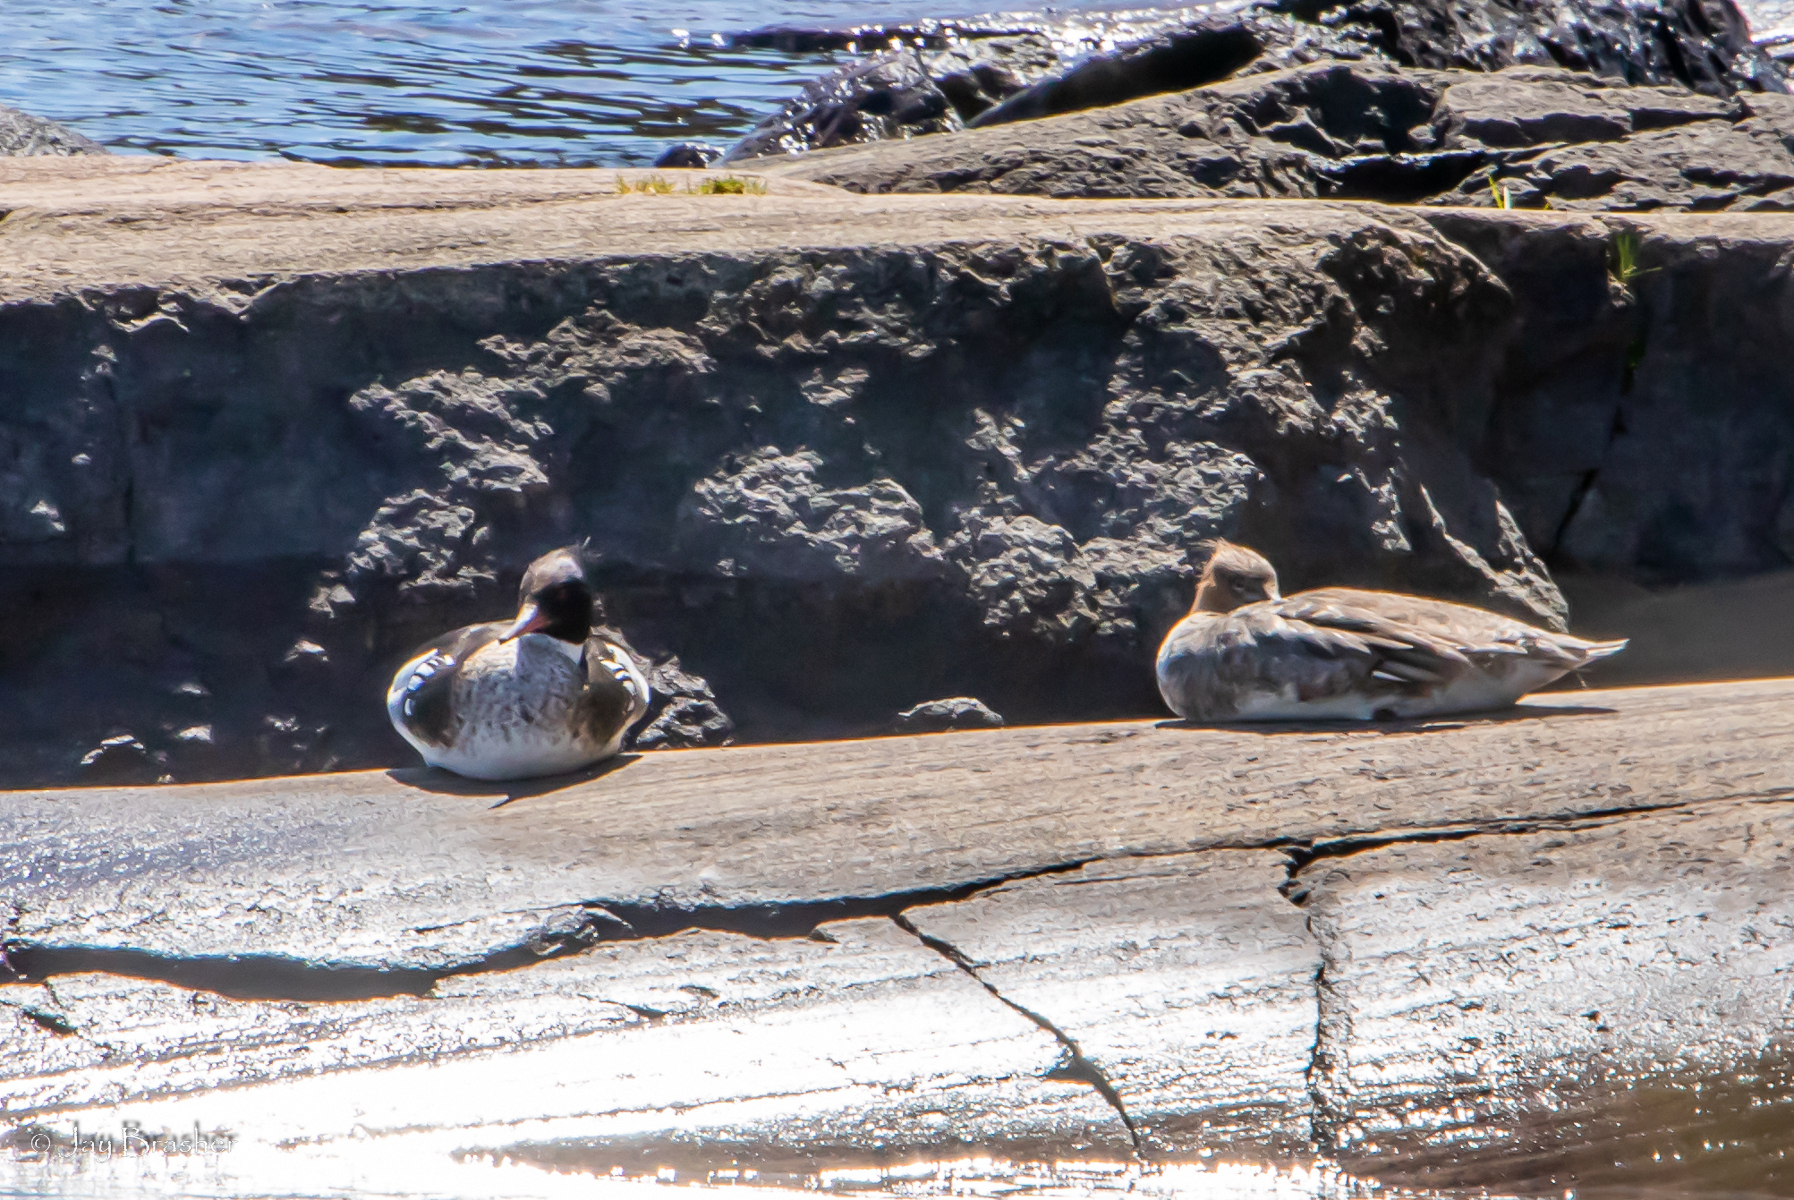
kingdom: Animalia
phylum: Chordata
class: Aves
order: Anseriformes
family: Anatidae
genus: Mergus
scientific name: Mergus serrator
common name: Red-breasted merganser
